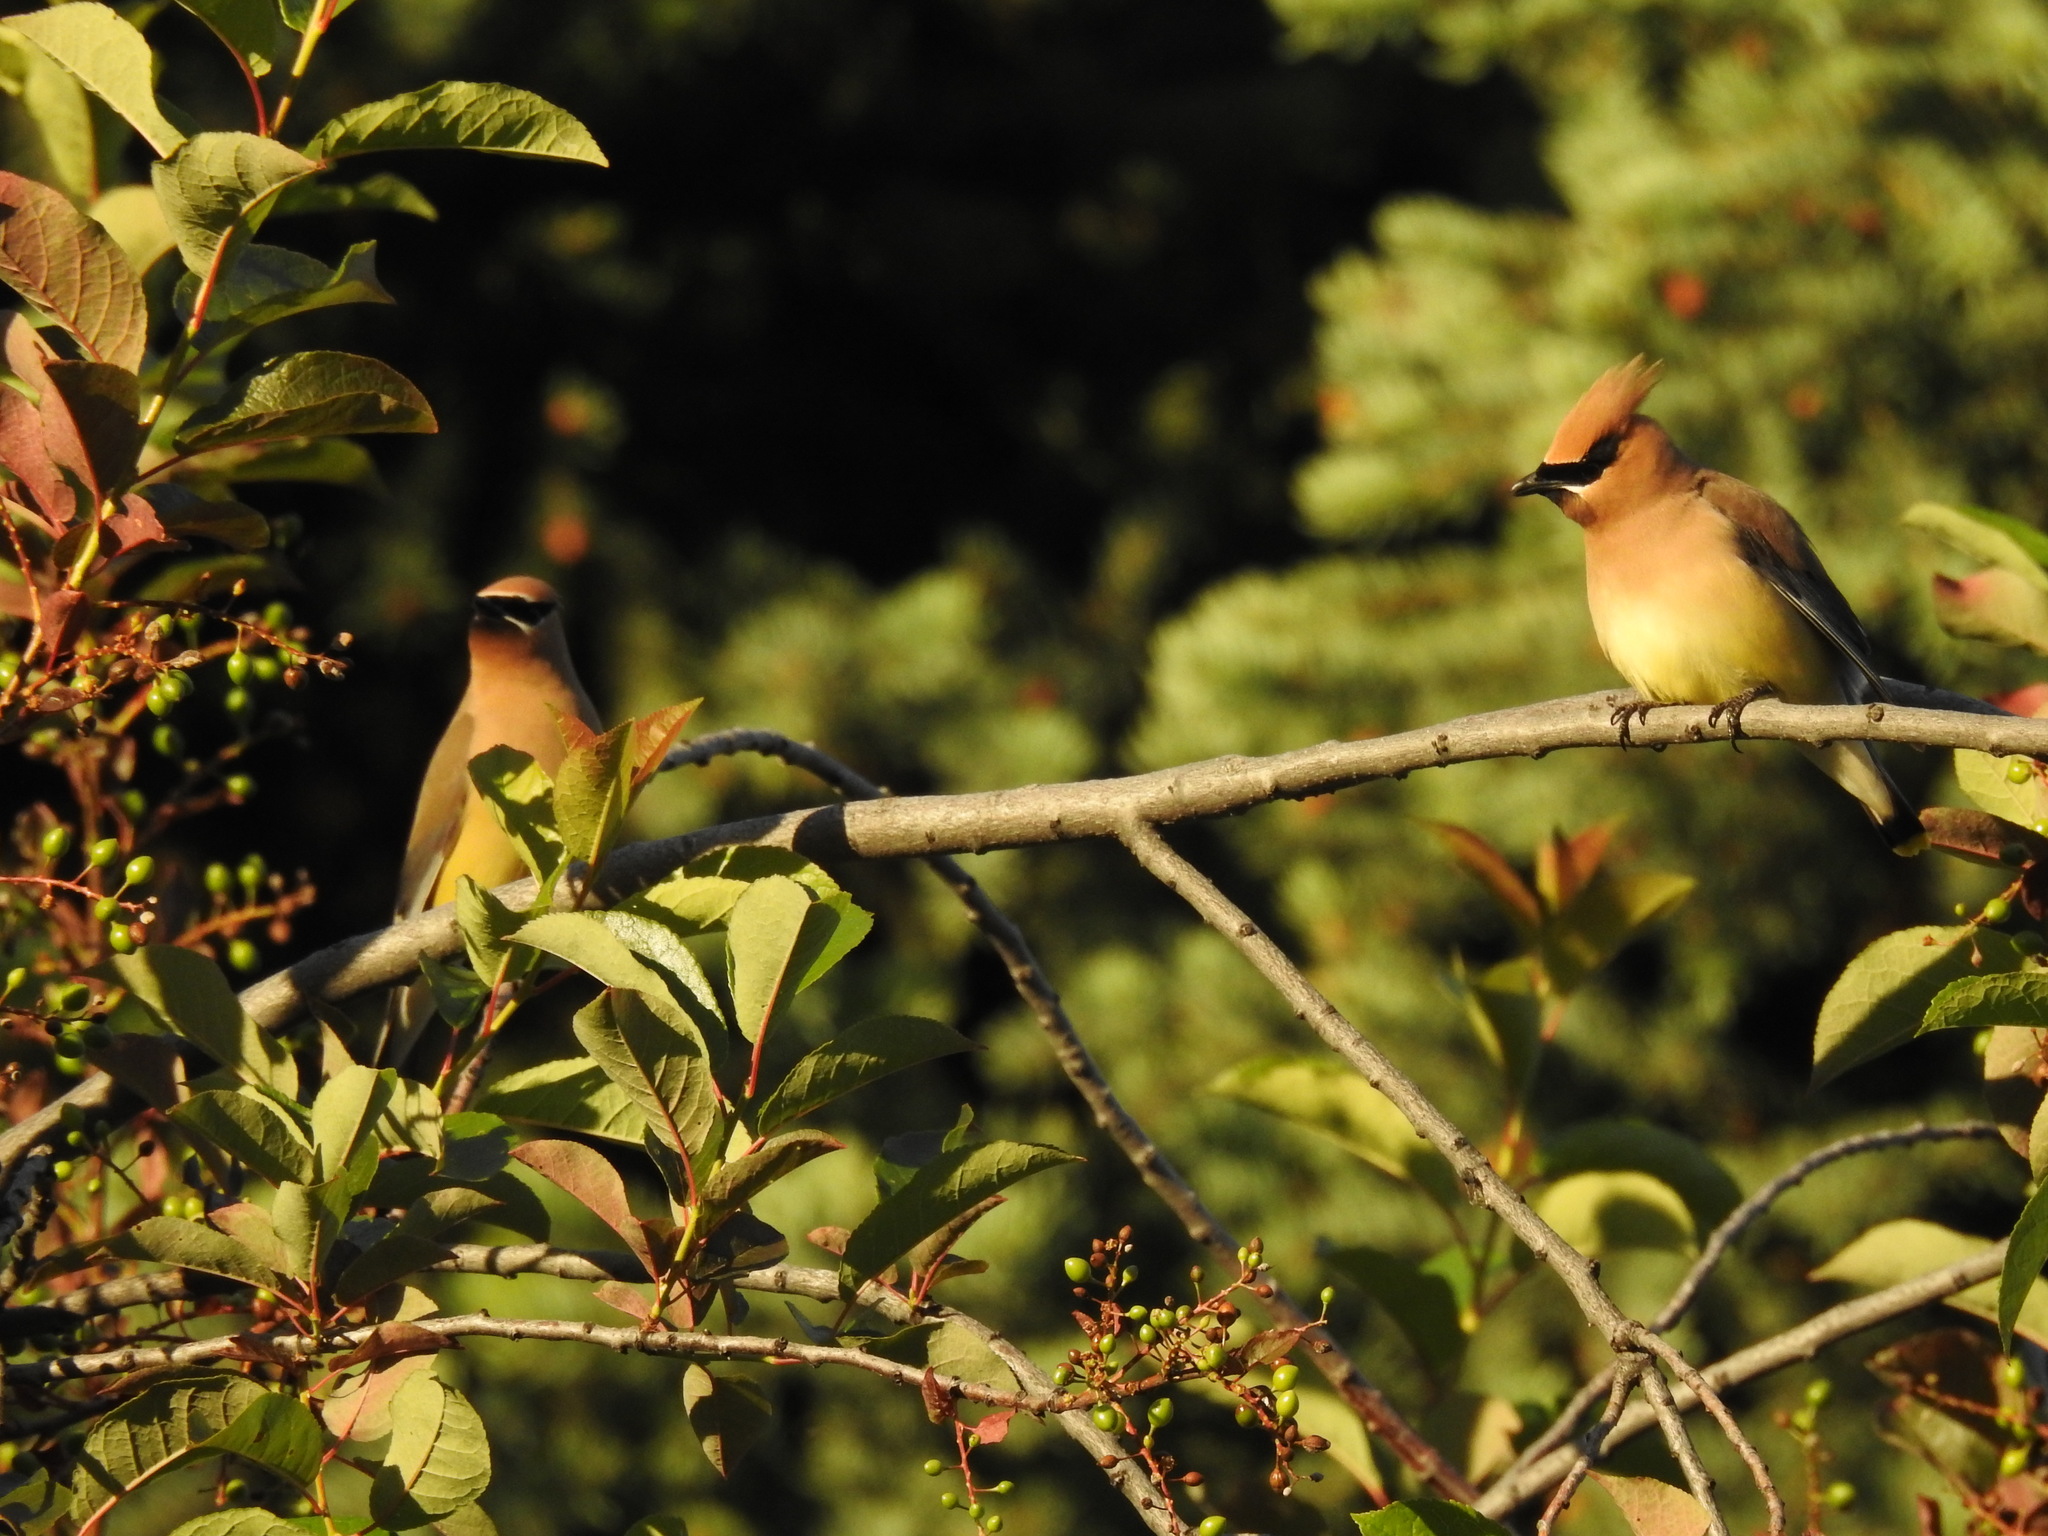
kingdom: Animalia
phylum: Chordata
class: Aves
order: Passeriformes
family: Bombycillidae
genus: Bombycilla
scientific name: Bombycilla cedrorum
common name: Cedar waxwing
